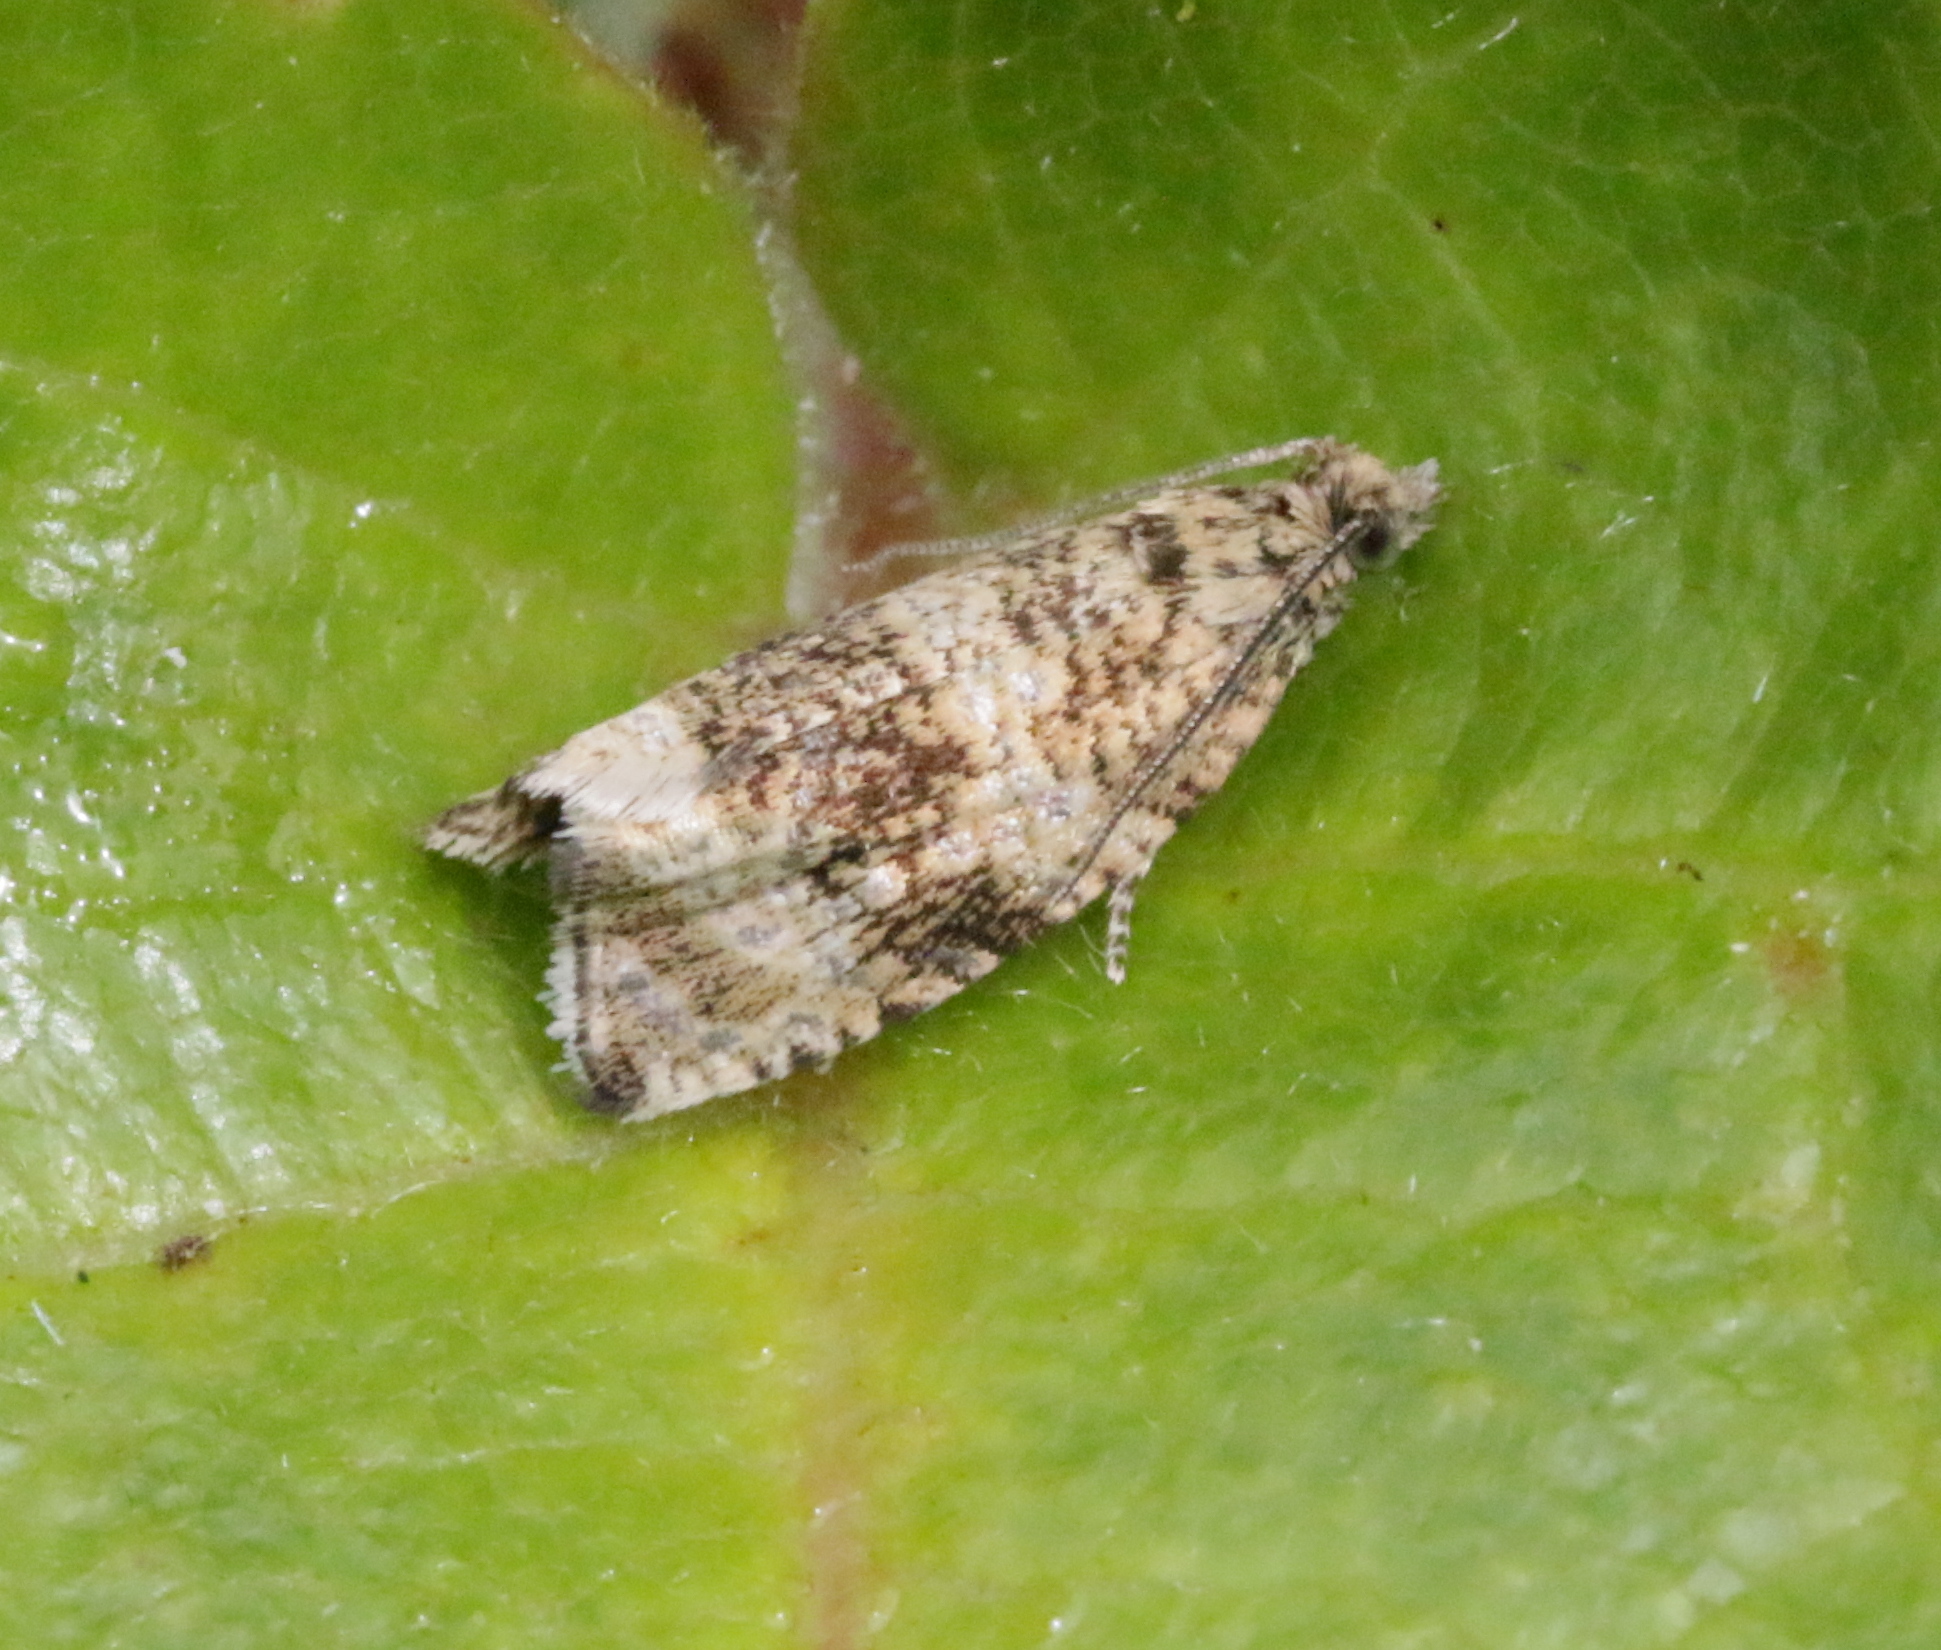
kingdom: Animalia
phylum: Arthropoda
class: Insecta
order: Lepidoptera
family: Tortricidae
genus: Syricoris
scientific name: Syricoris lacunana
